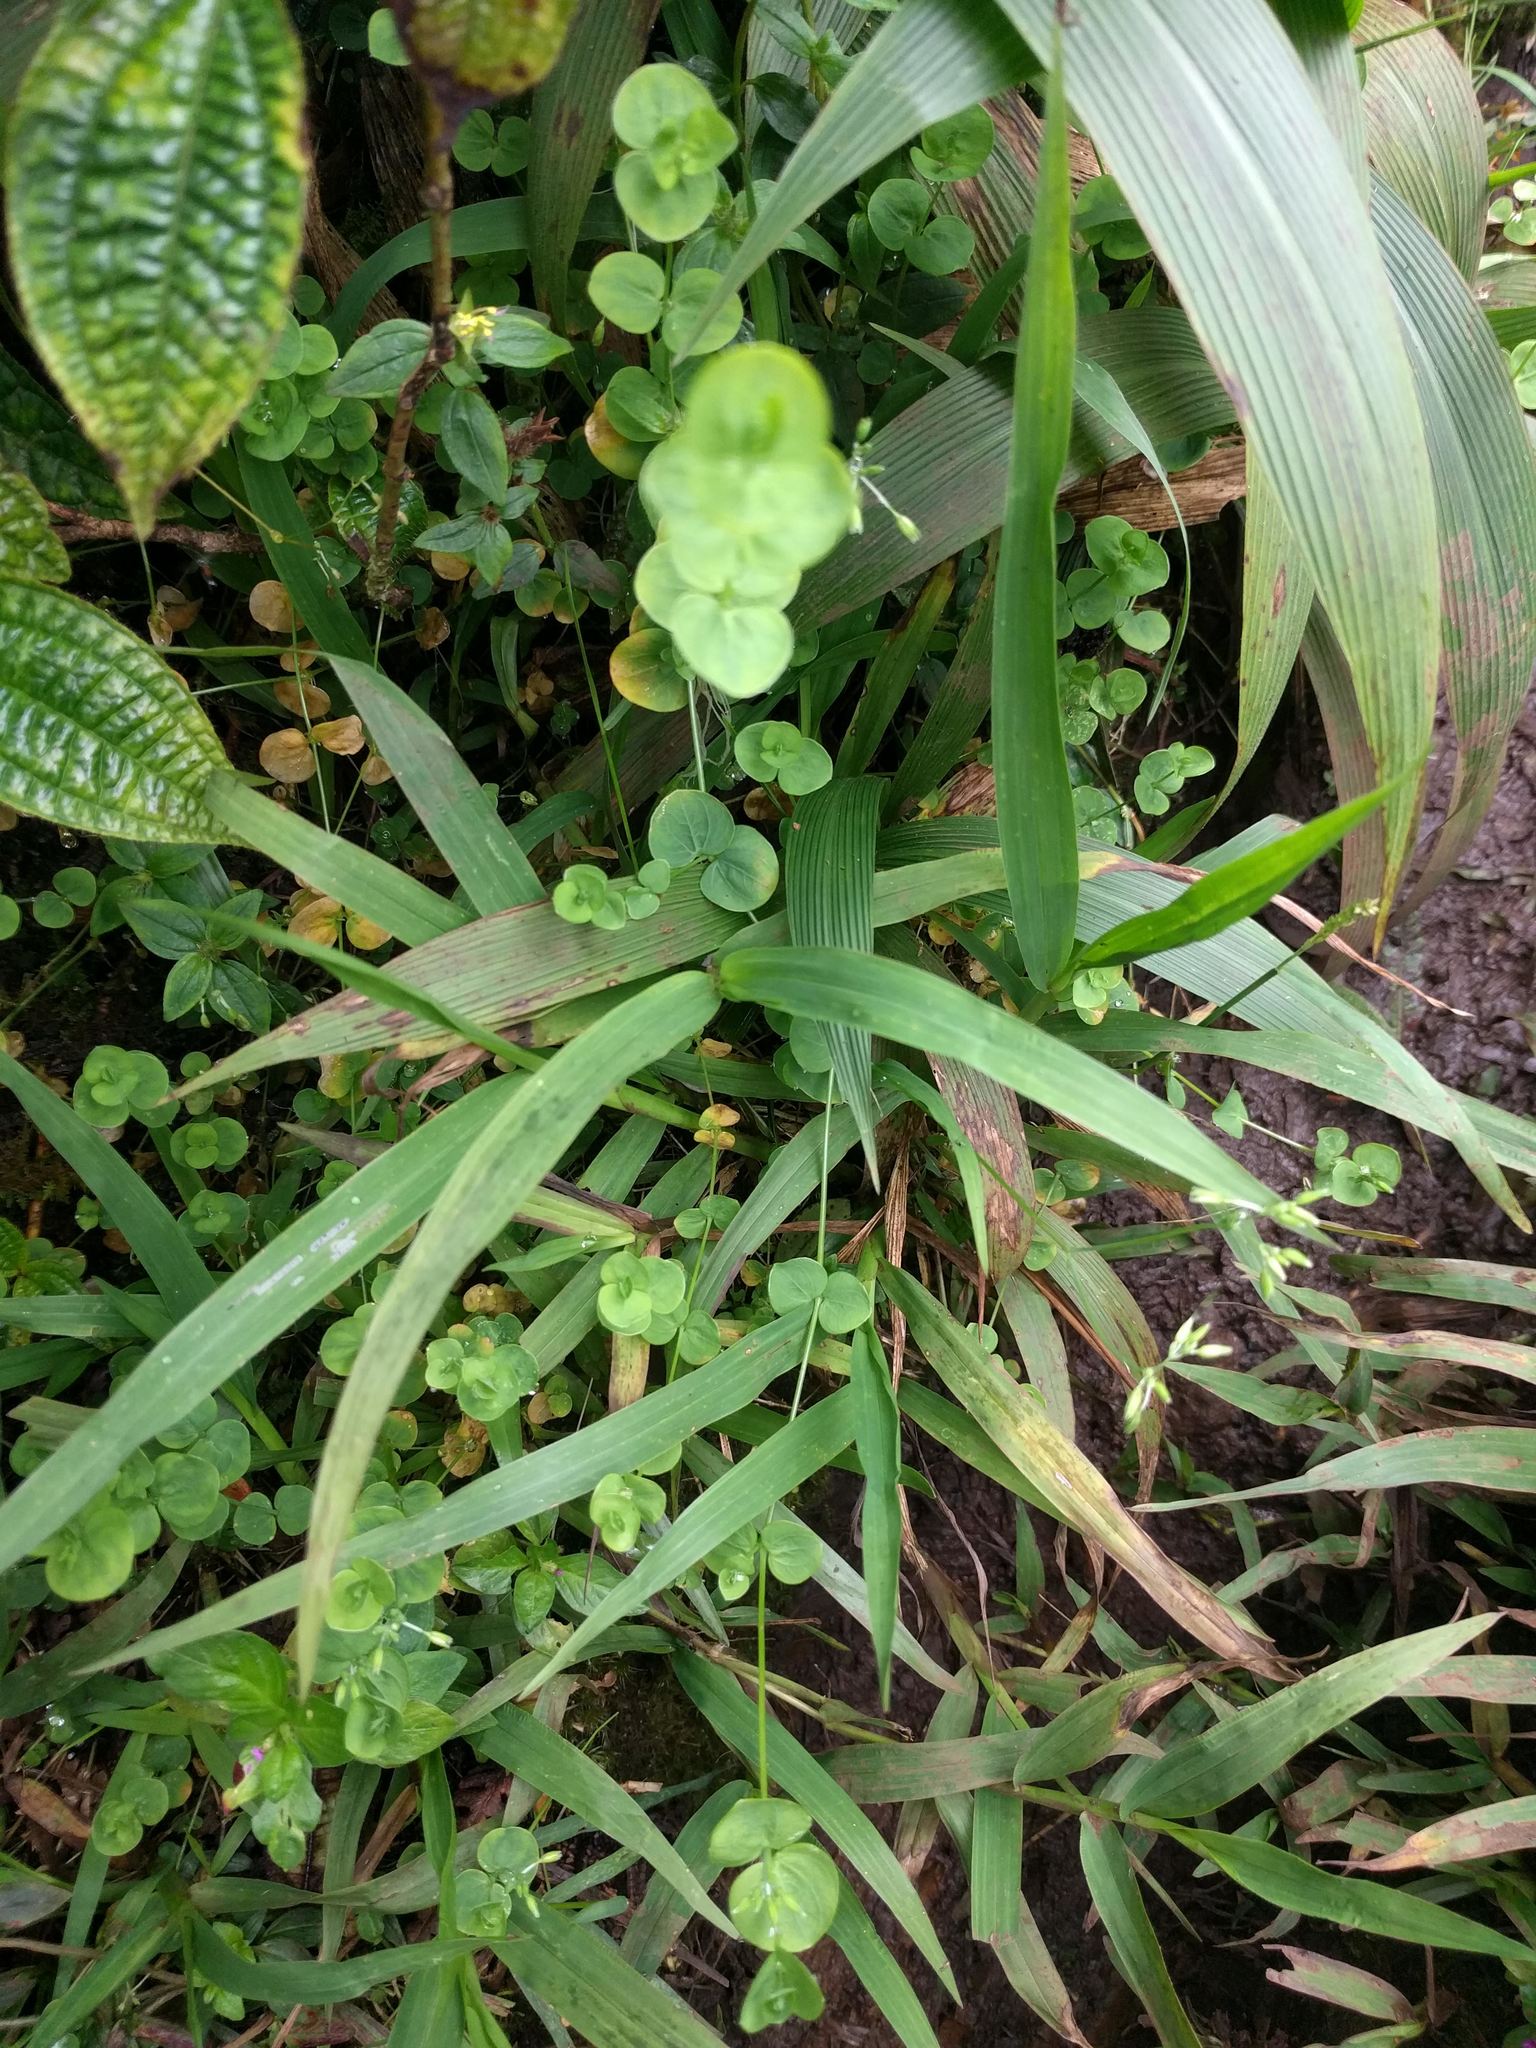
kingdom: Plantae
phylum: Tracheophyta
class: Liliopsida
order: Poales
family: Poaceae
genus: Setaria
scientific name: Setaria palmifolia
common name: Broadleaved bristlegrass
